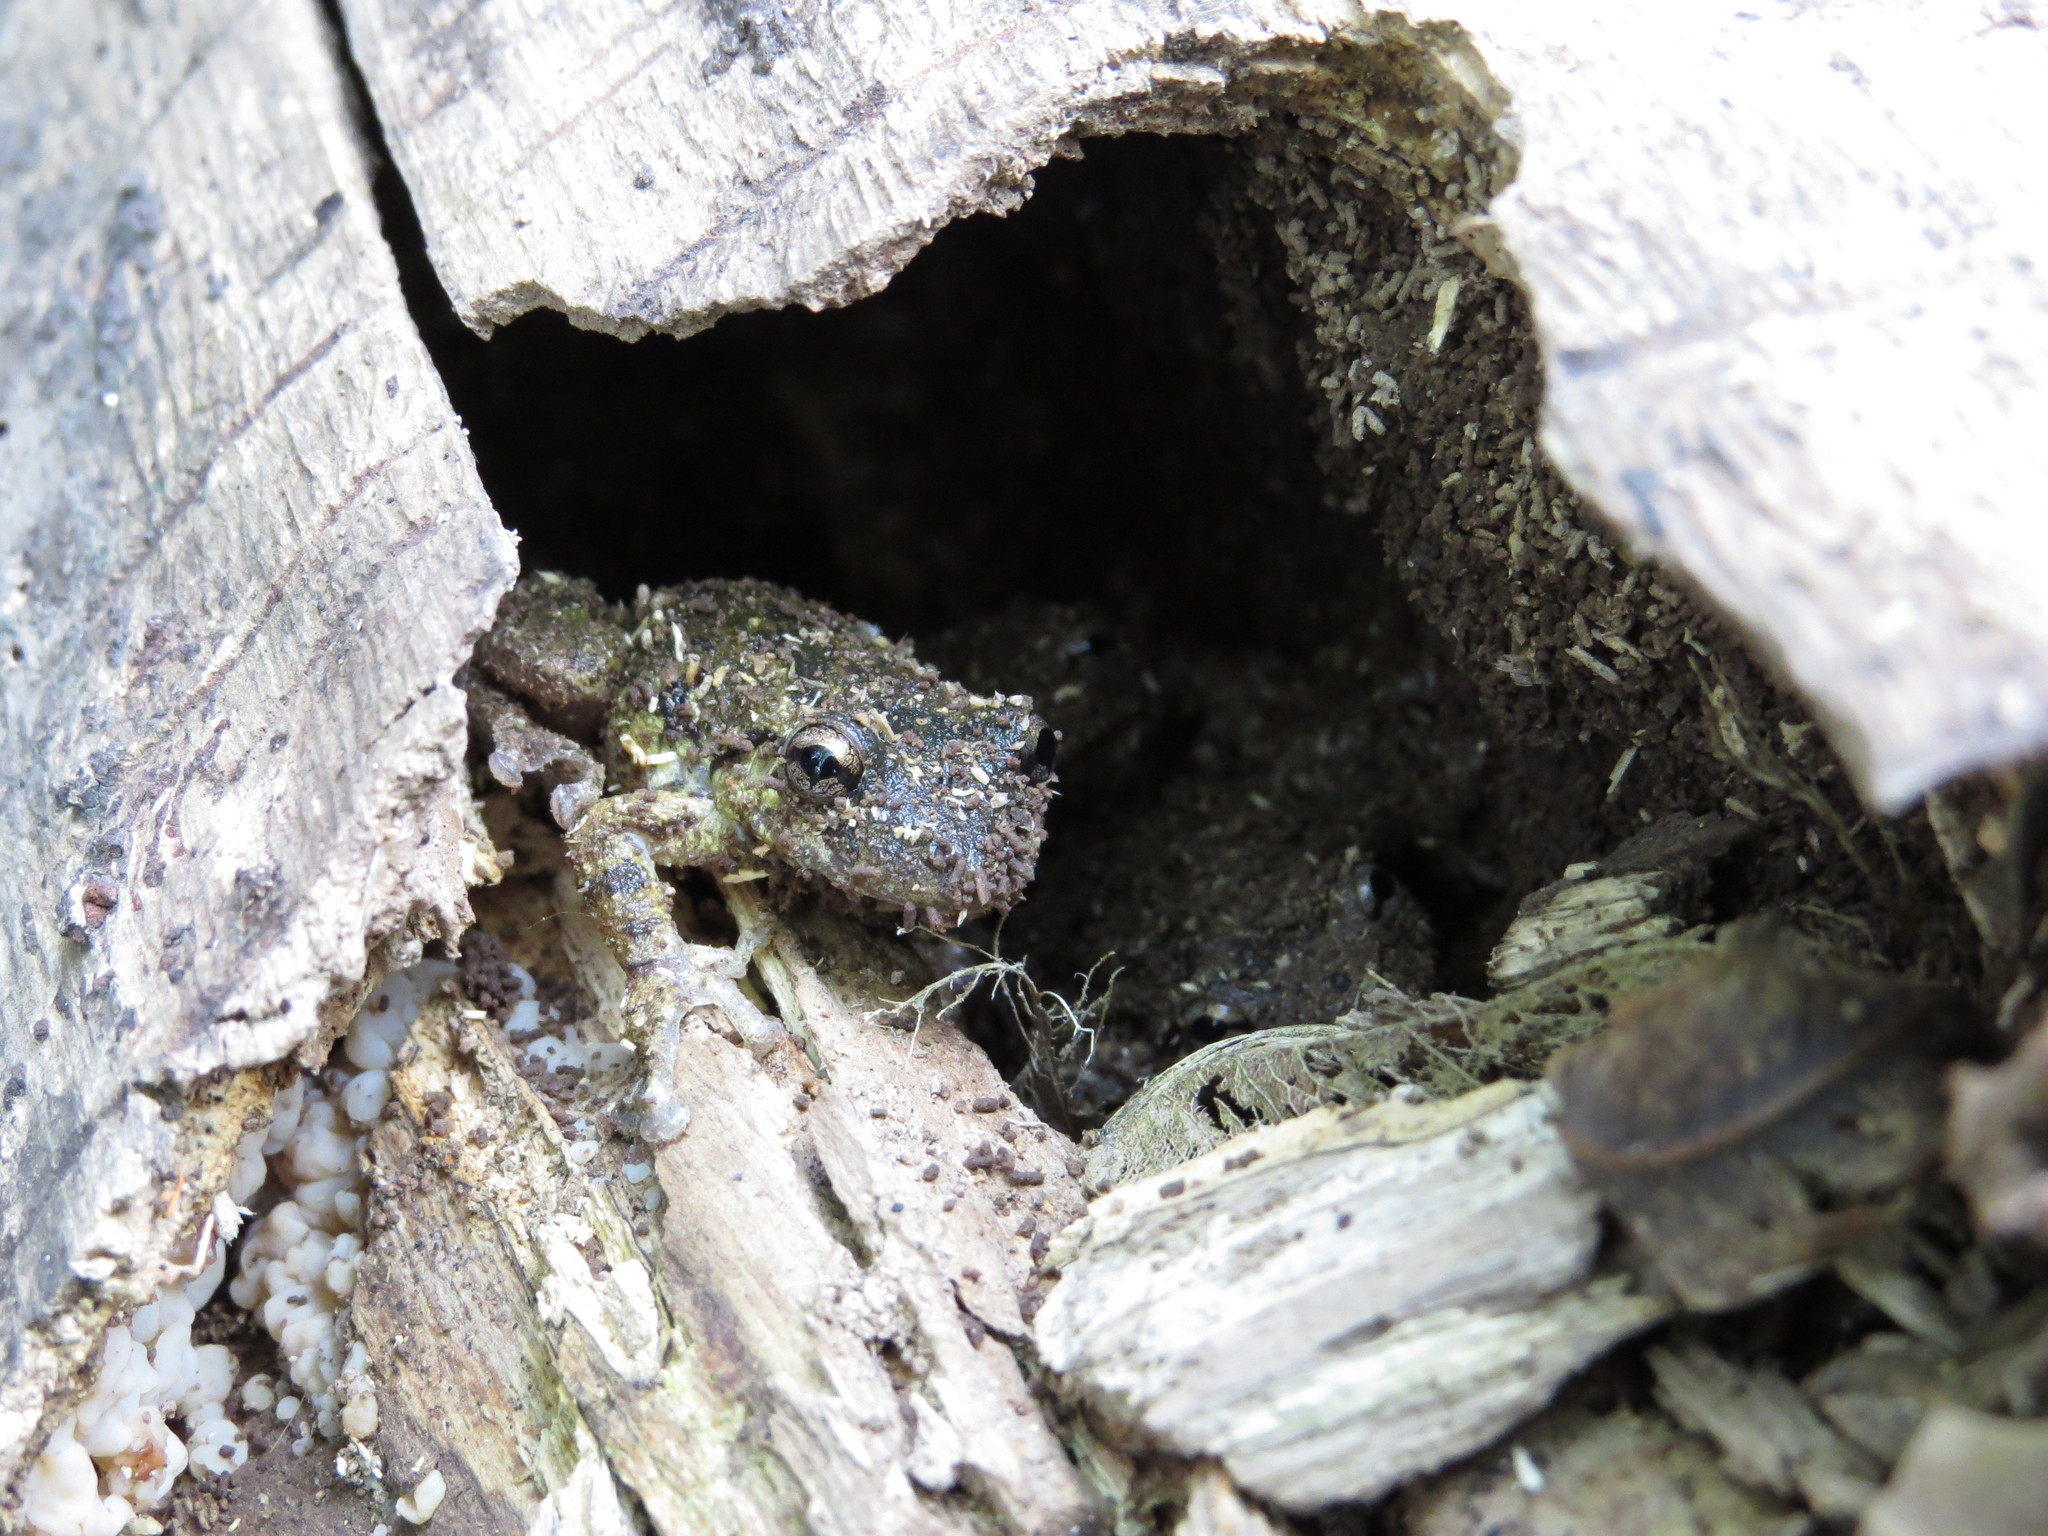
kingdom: Animalia
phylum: Chordata
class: Amphibia
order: Anura
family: Hylidae
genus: Scinax
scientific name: Scinax granulatus
